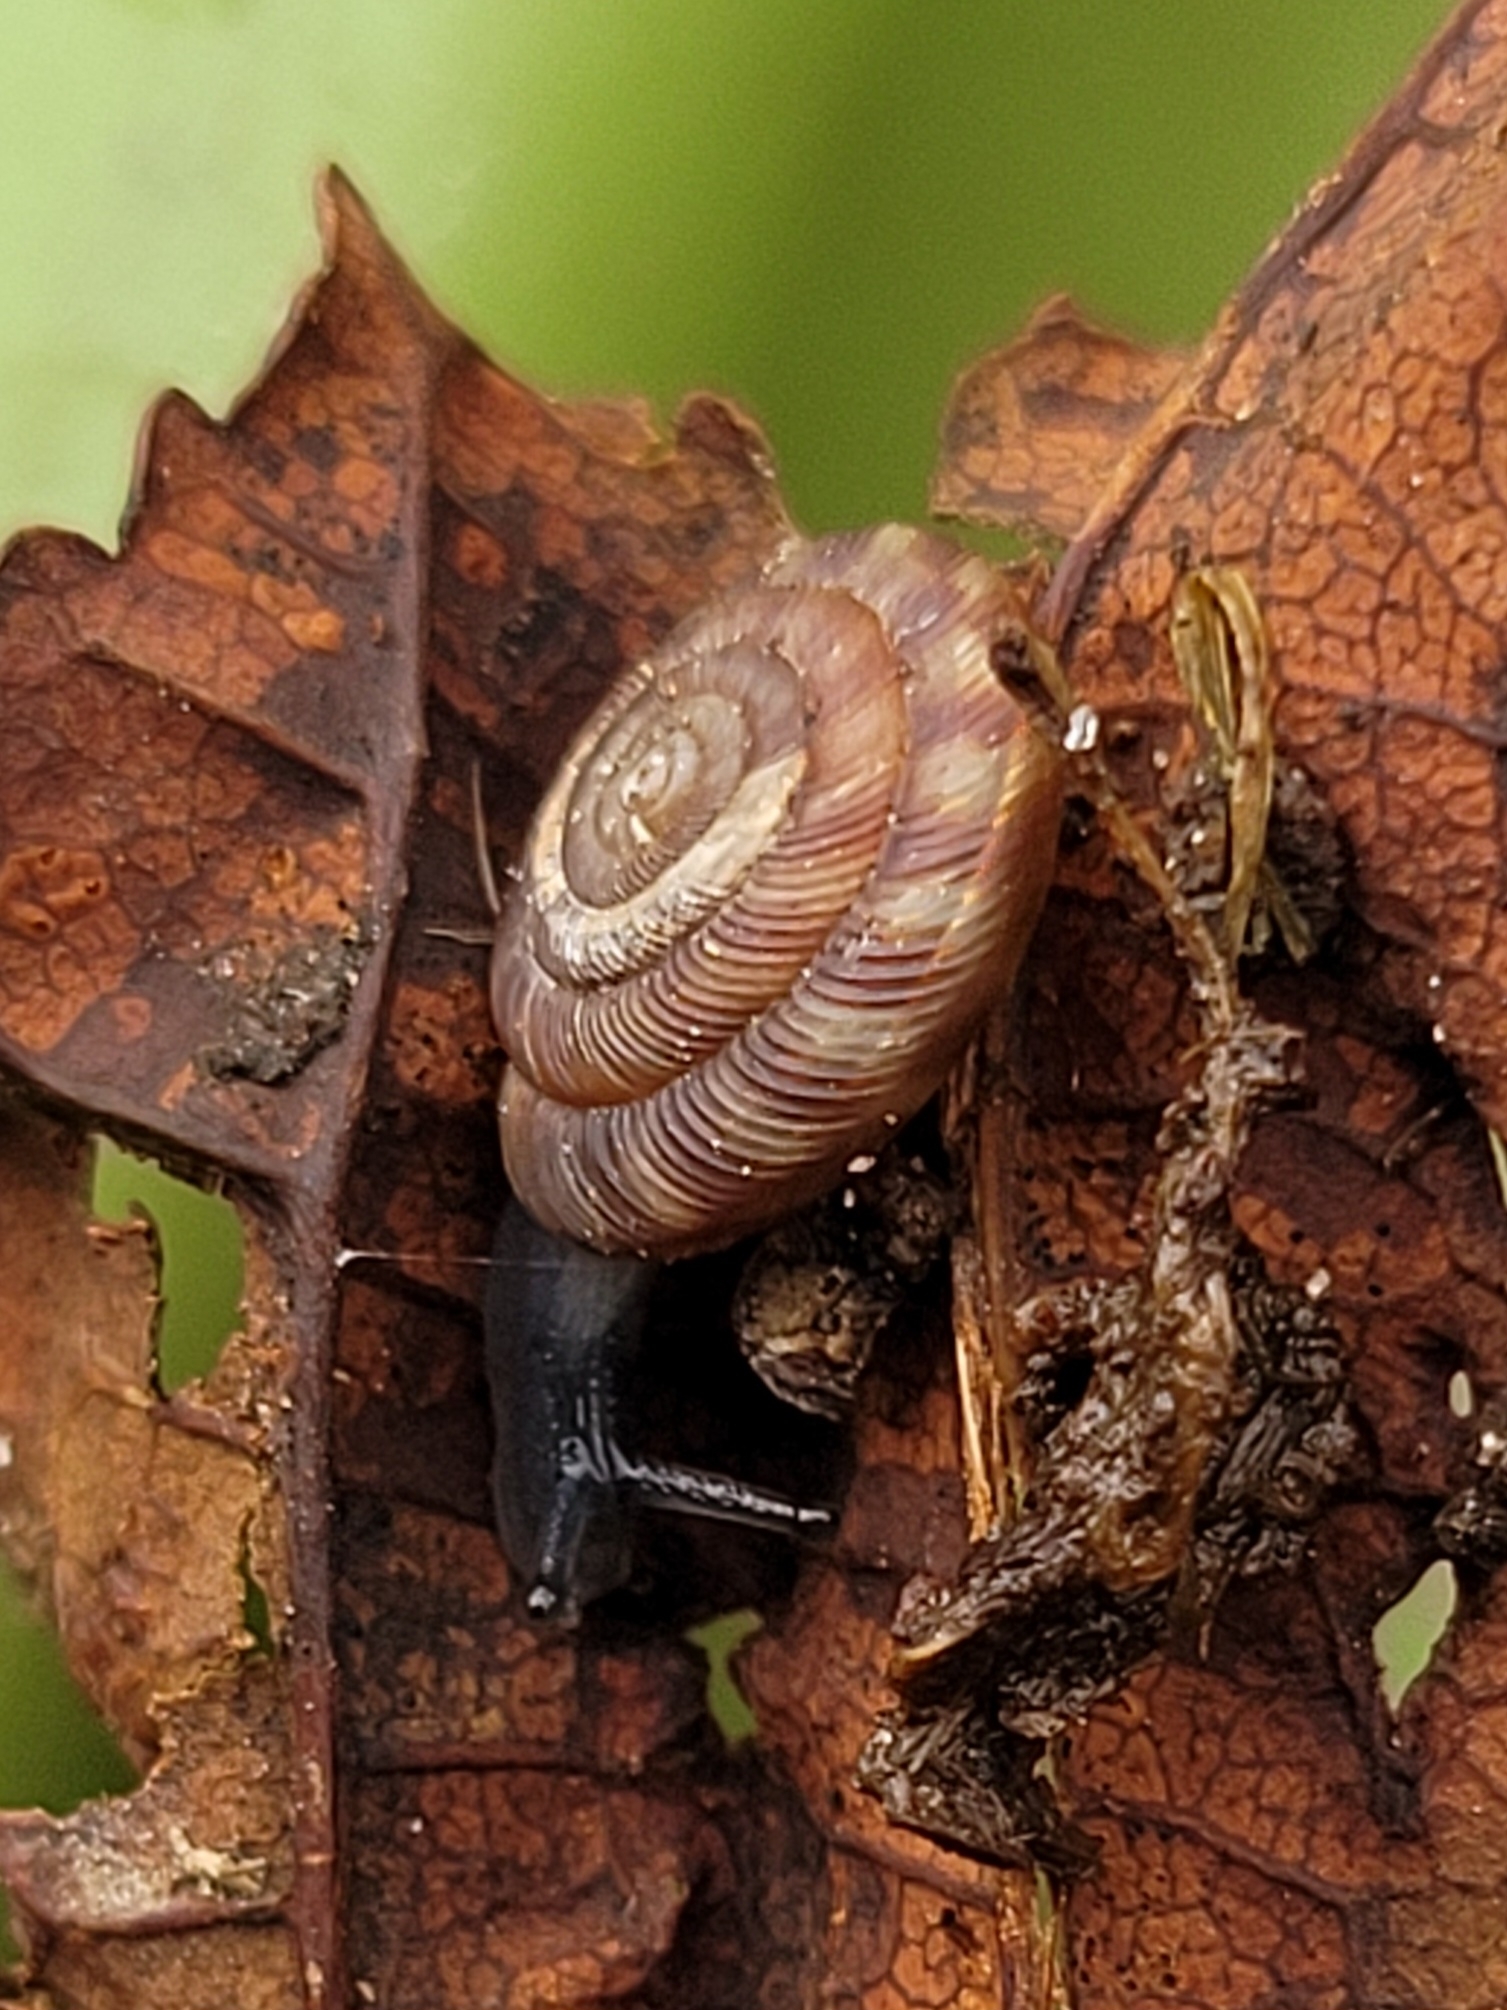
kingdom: Animalia
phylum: Mollusca
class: Gastropoda
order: Stylommatophora
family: Discidae
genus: Discus
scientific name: Discus rotundatus
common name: Rounded snail
